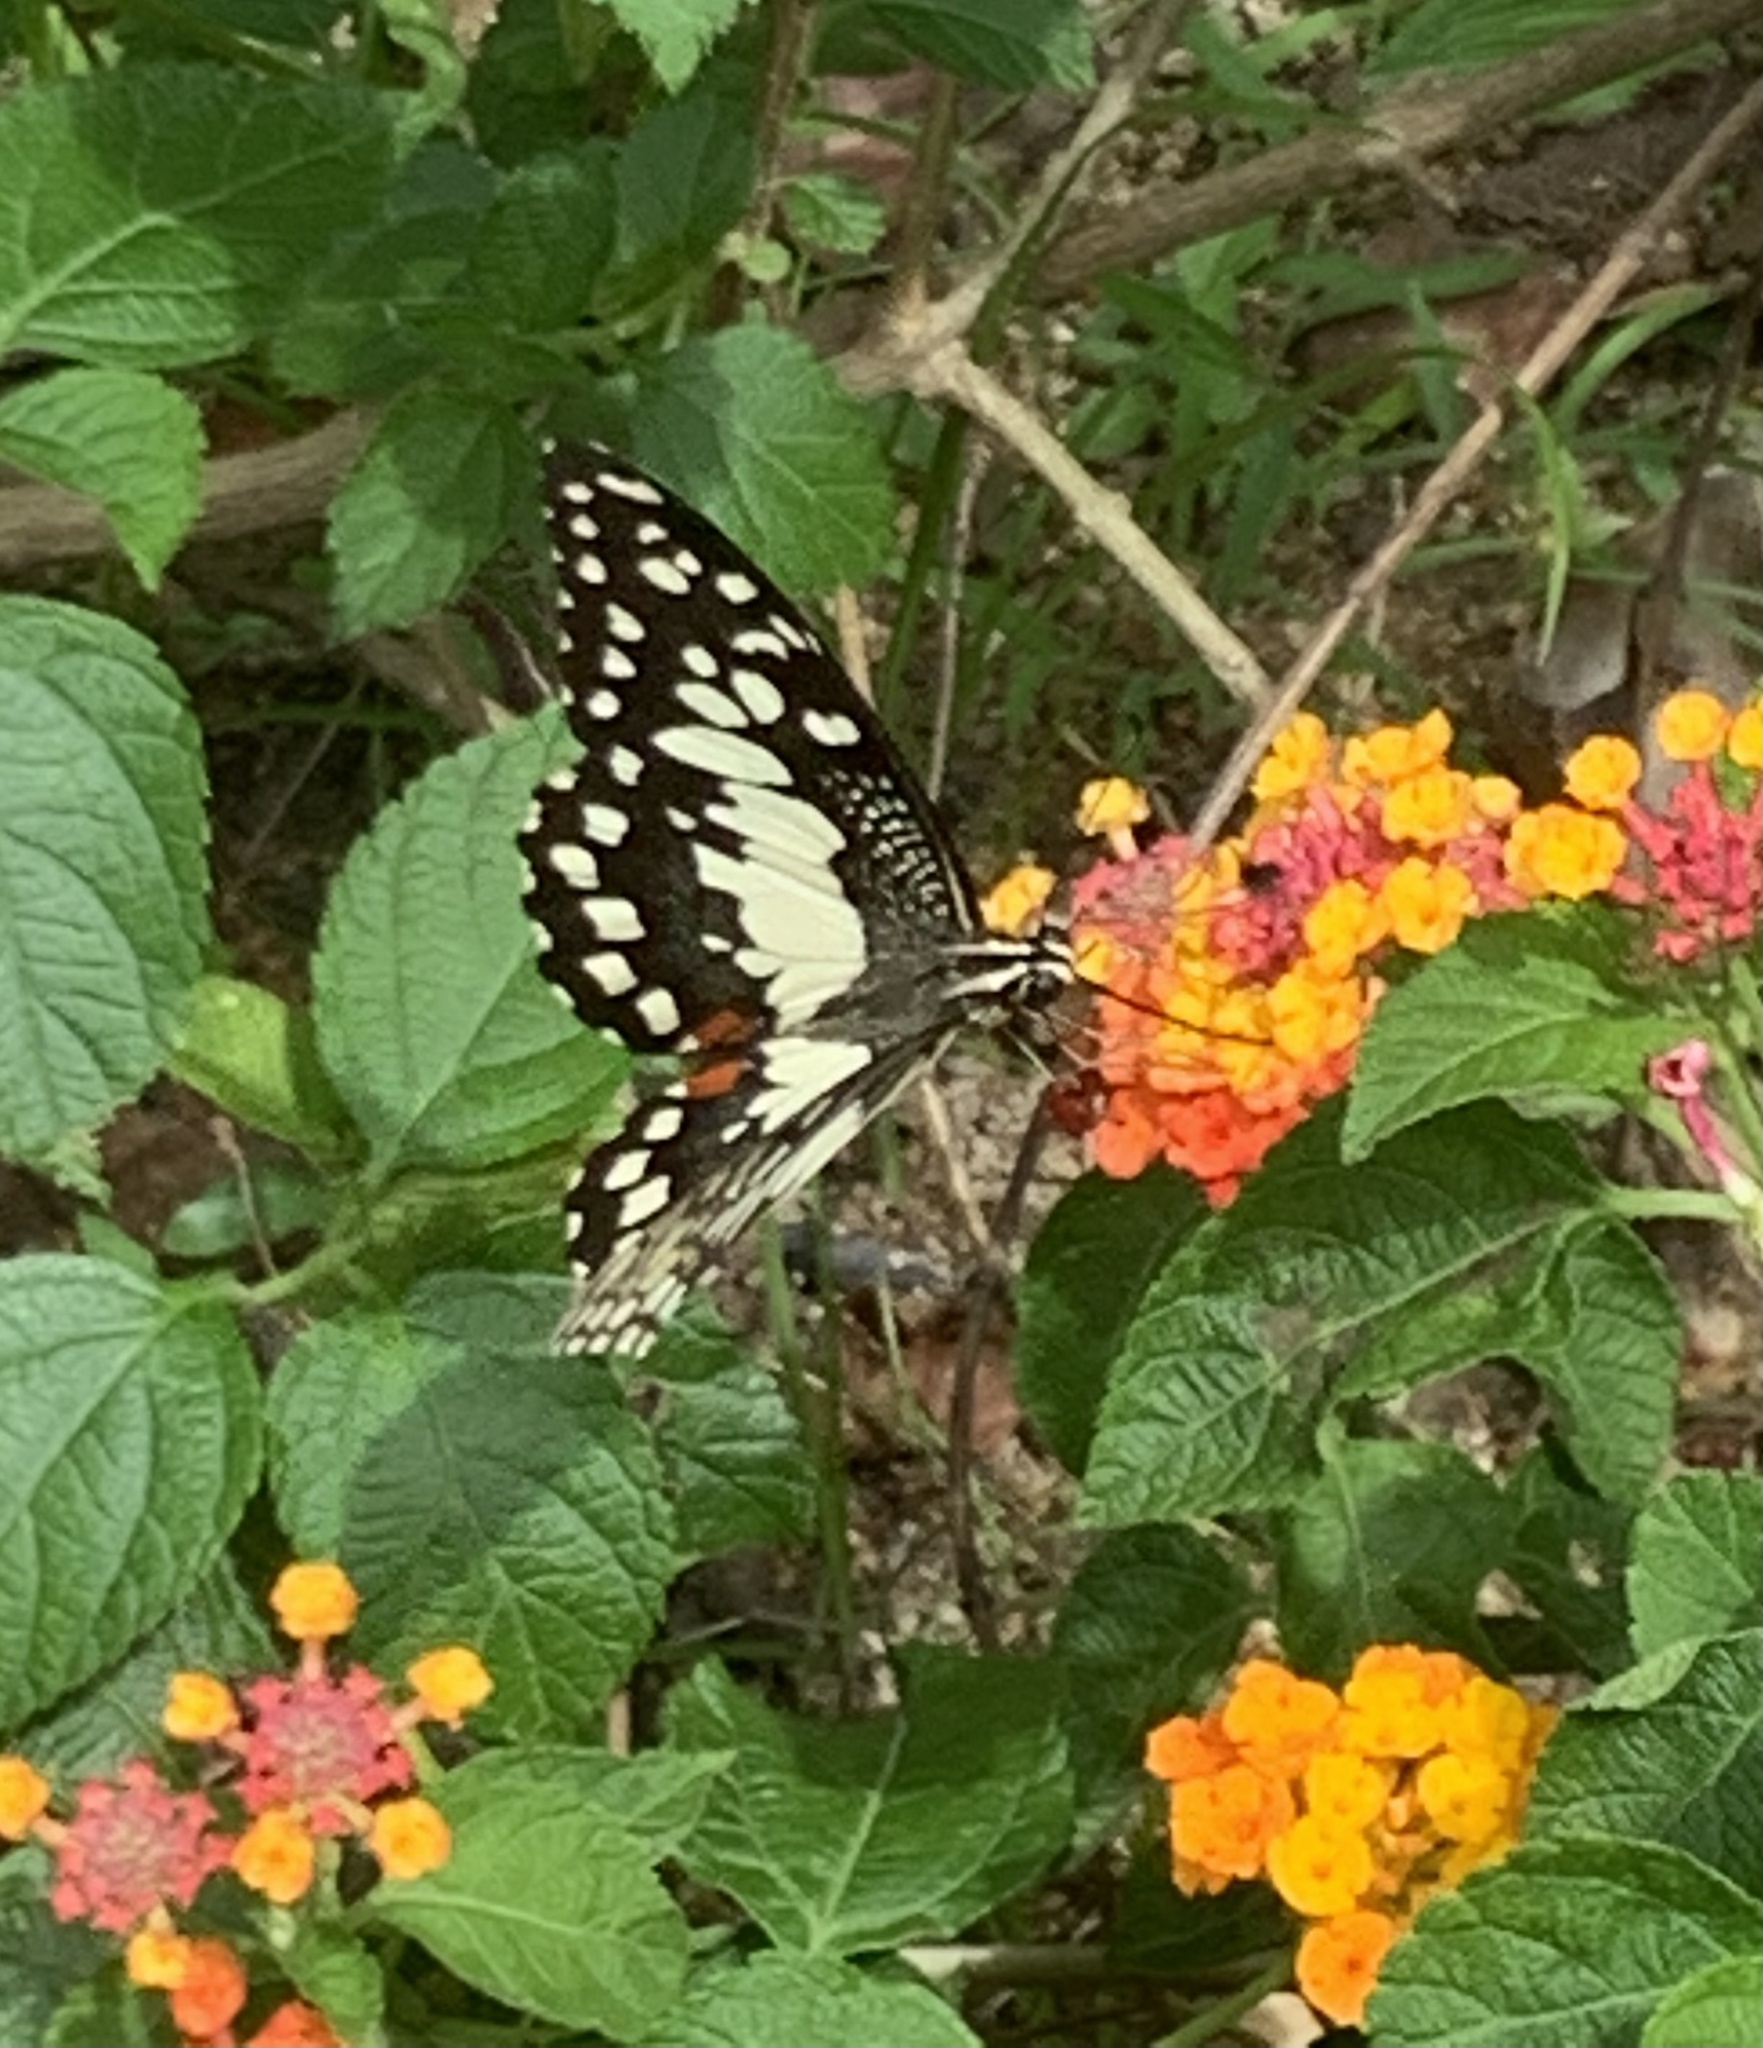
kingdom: Animalia
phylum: Arthropoda
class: Insecta
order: Lepidoptera
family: Papilionidae
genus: Papilio
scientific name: Papilio demoleus
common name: Lime butterfly
